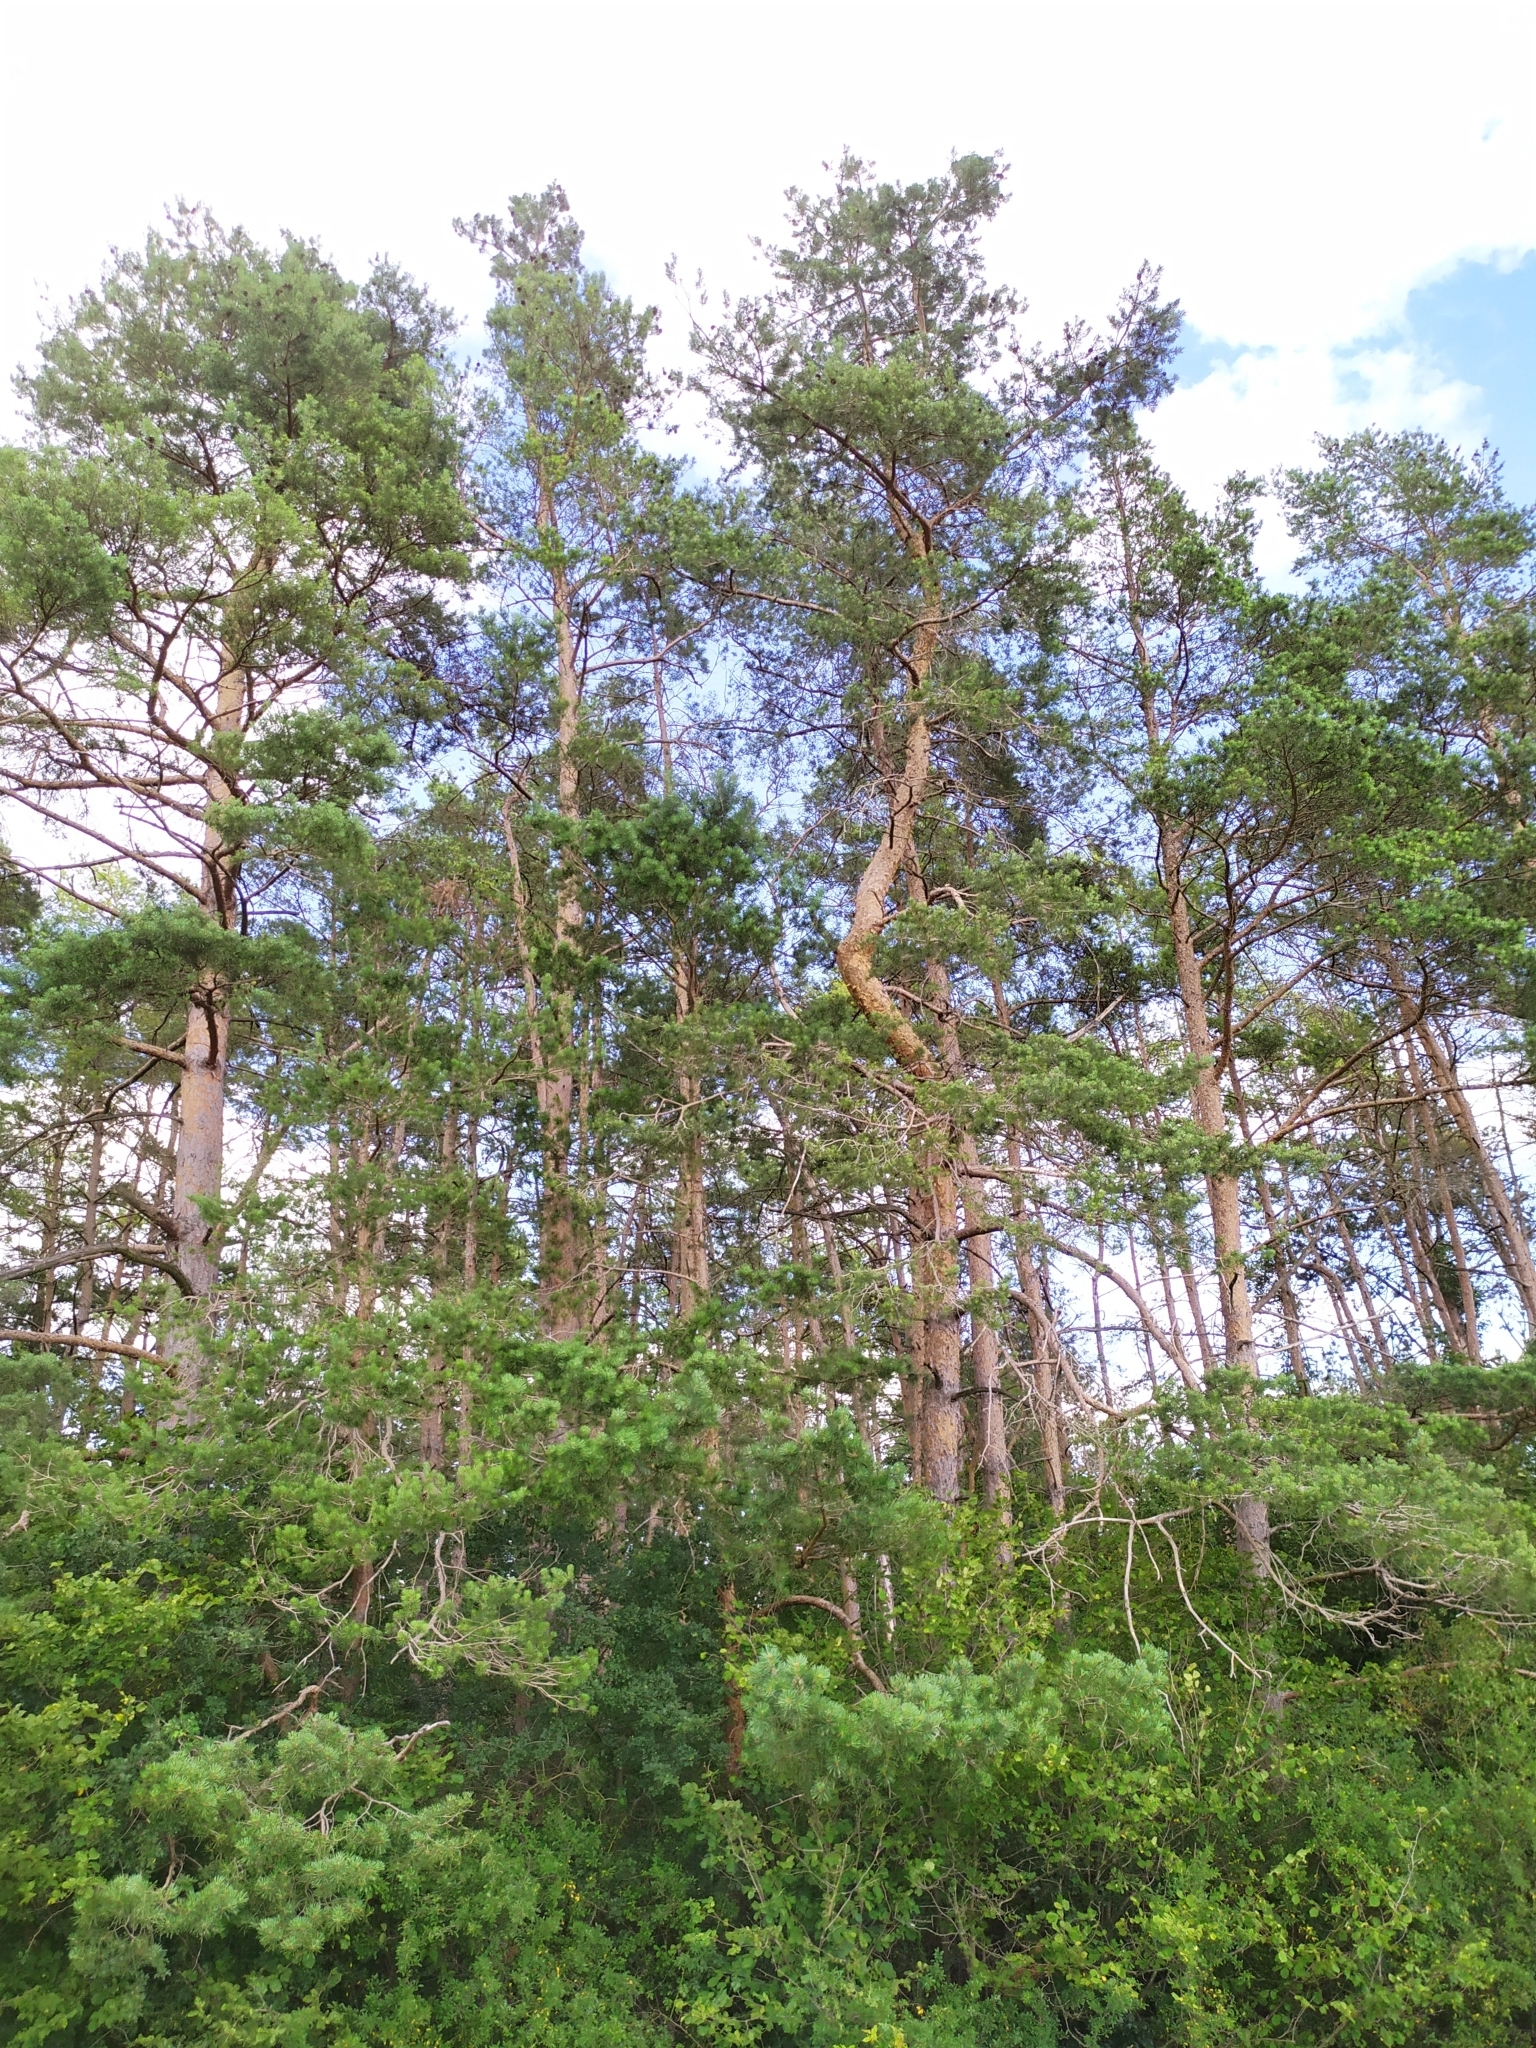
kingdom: Plantae
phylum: Tracheophyta
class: Pinopsida
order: Pinales
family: Pinaceae
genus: Pinus
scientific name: Pinus sylvestris
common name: Scots pine
